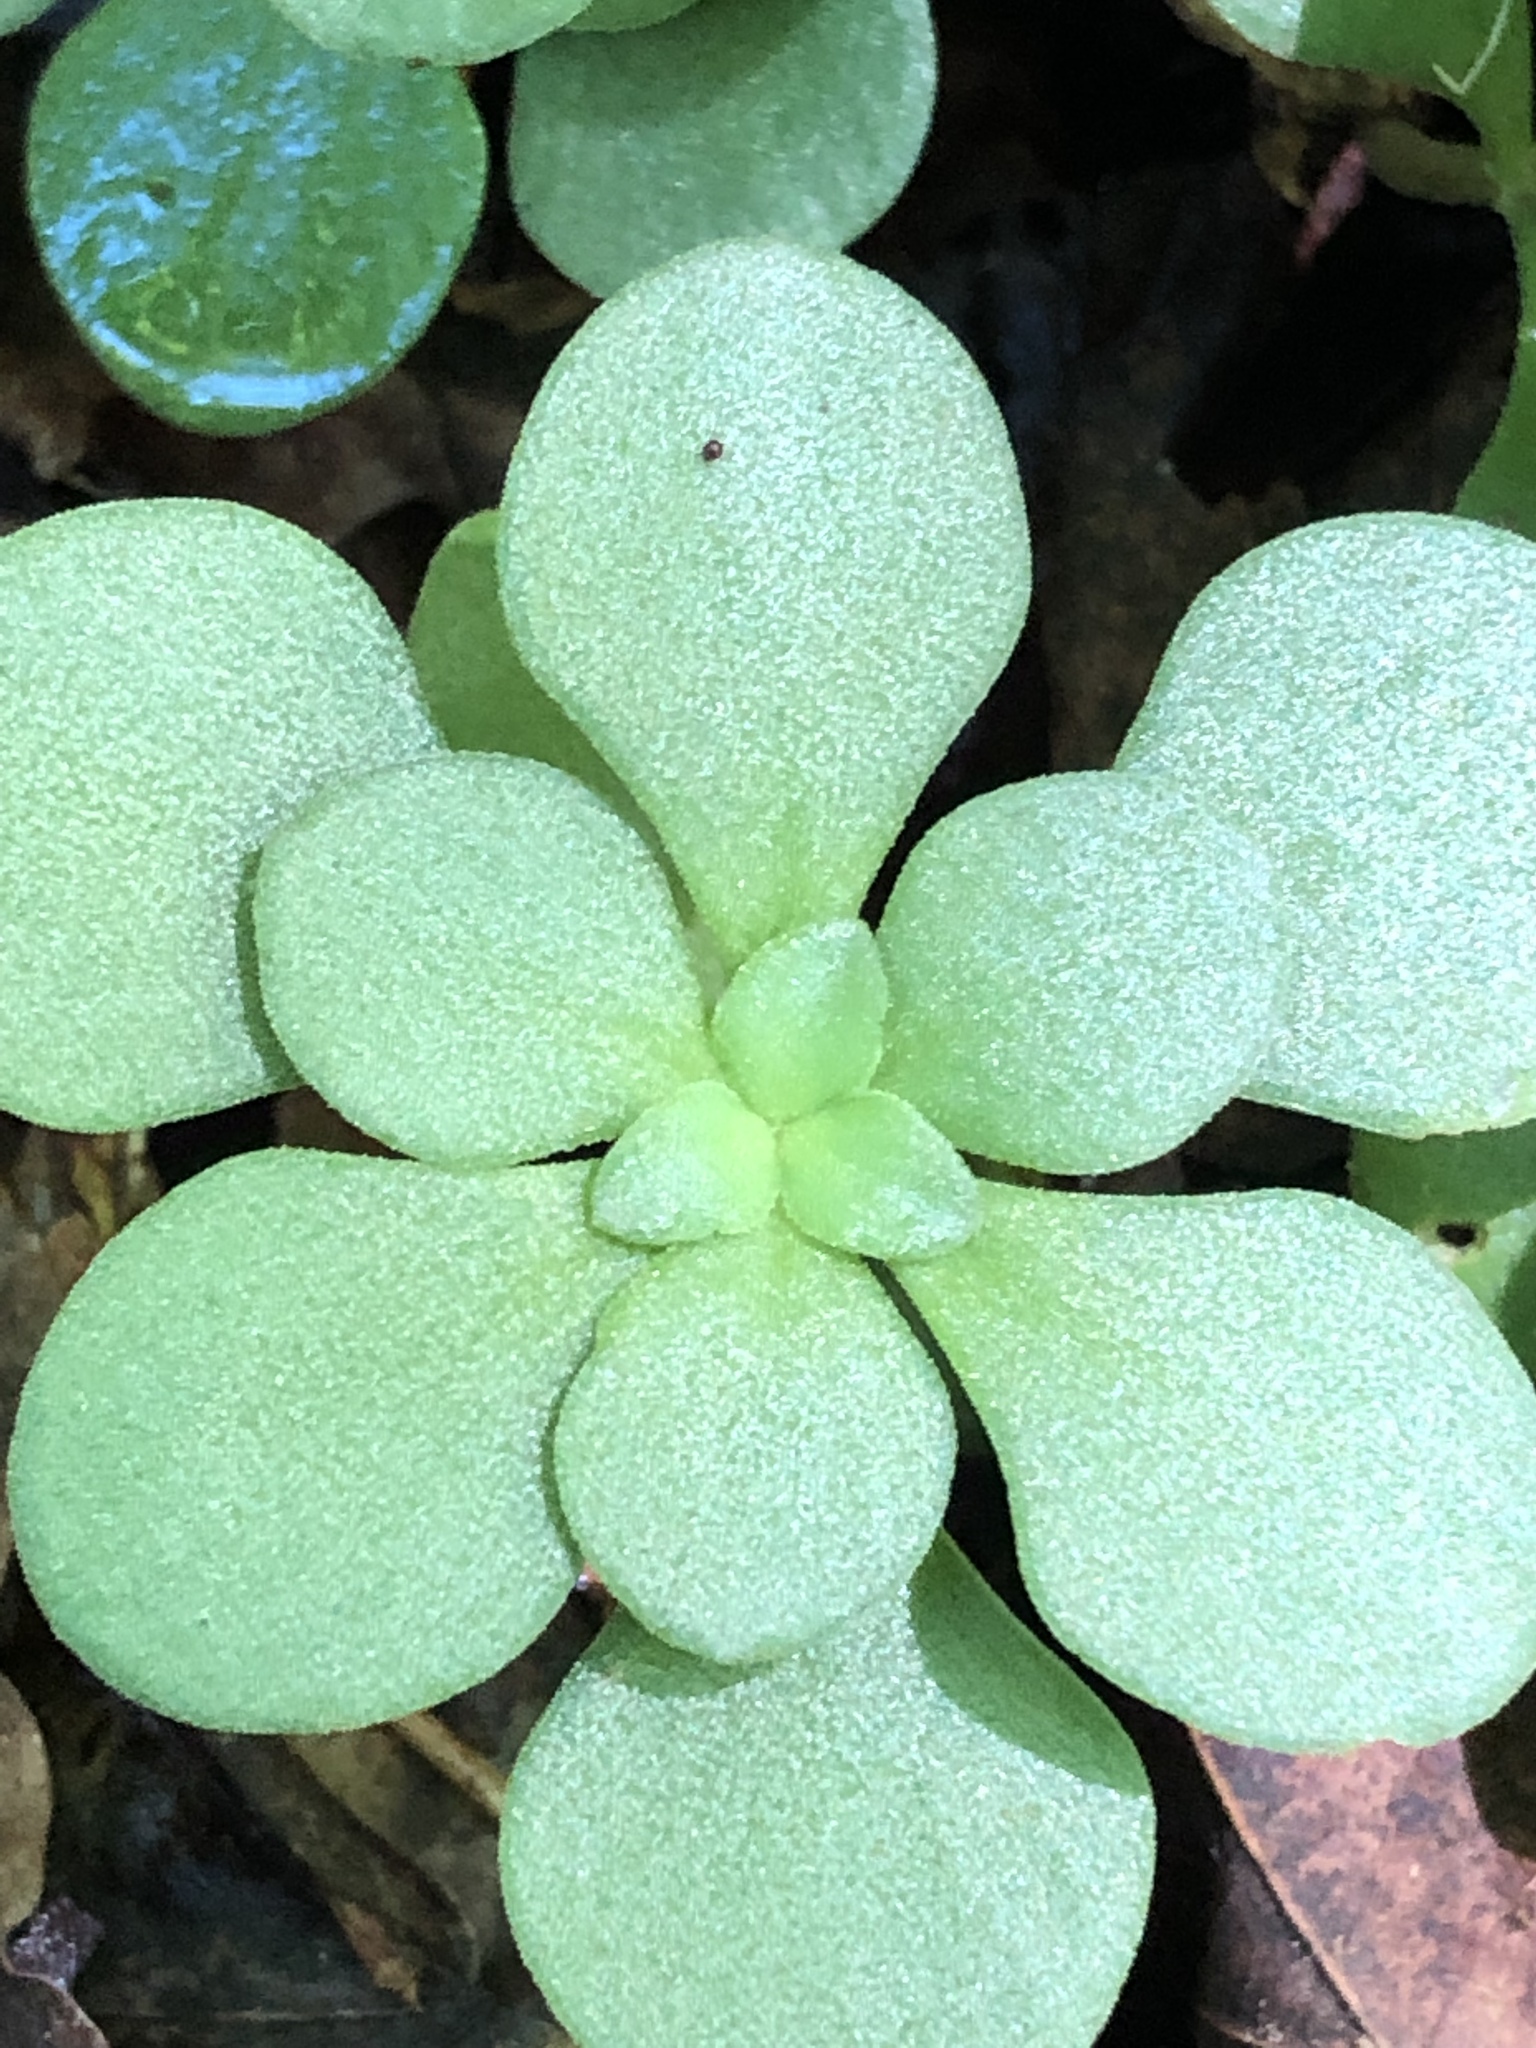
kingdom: Plantae
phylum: Tracheophyta
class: Magnoliopsida
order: Saxifragales
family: Crassulaceae
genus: Sedum
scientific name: Sedum ternatum
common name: Wild stonecrop
